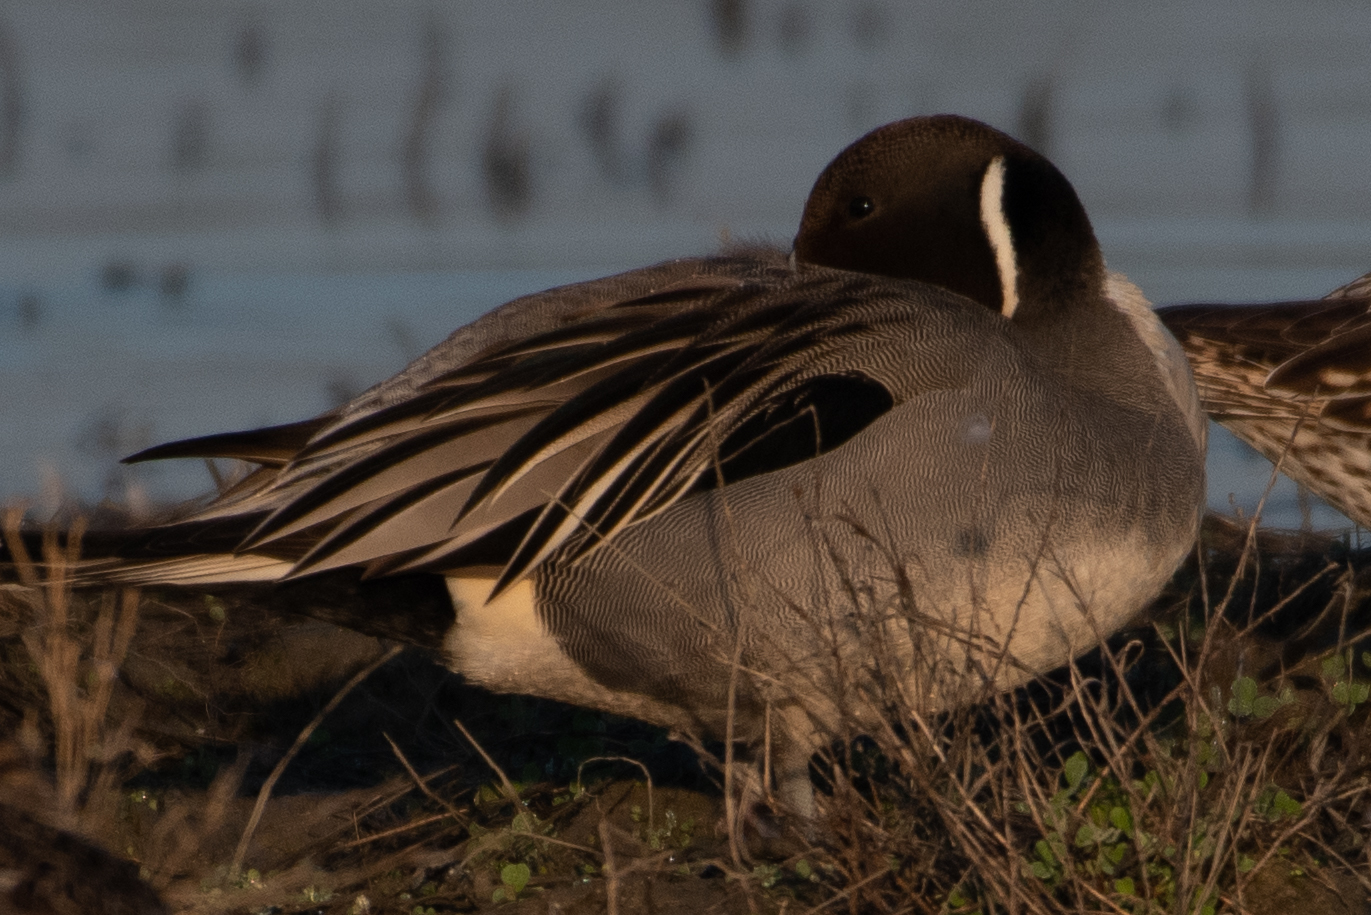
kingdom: Animalia
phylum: Chordata
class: Aves
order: Anseriformes
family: Anatidae
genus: Anas
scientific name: Anas acuta
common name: Northern pintail
